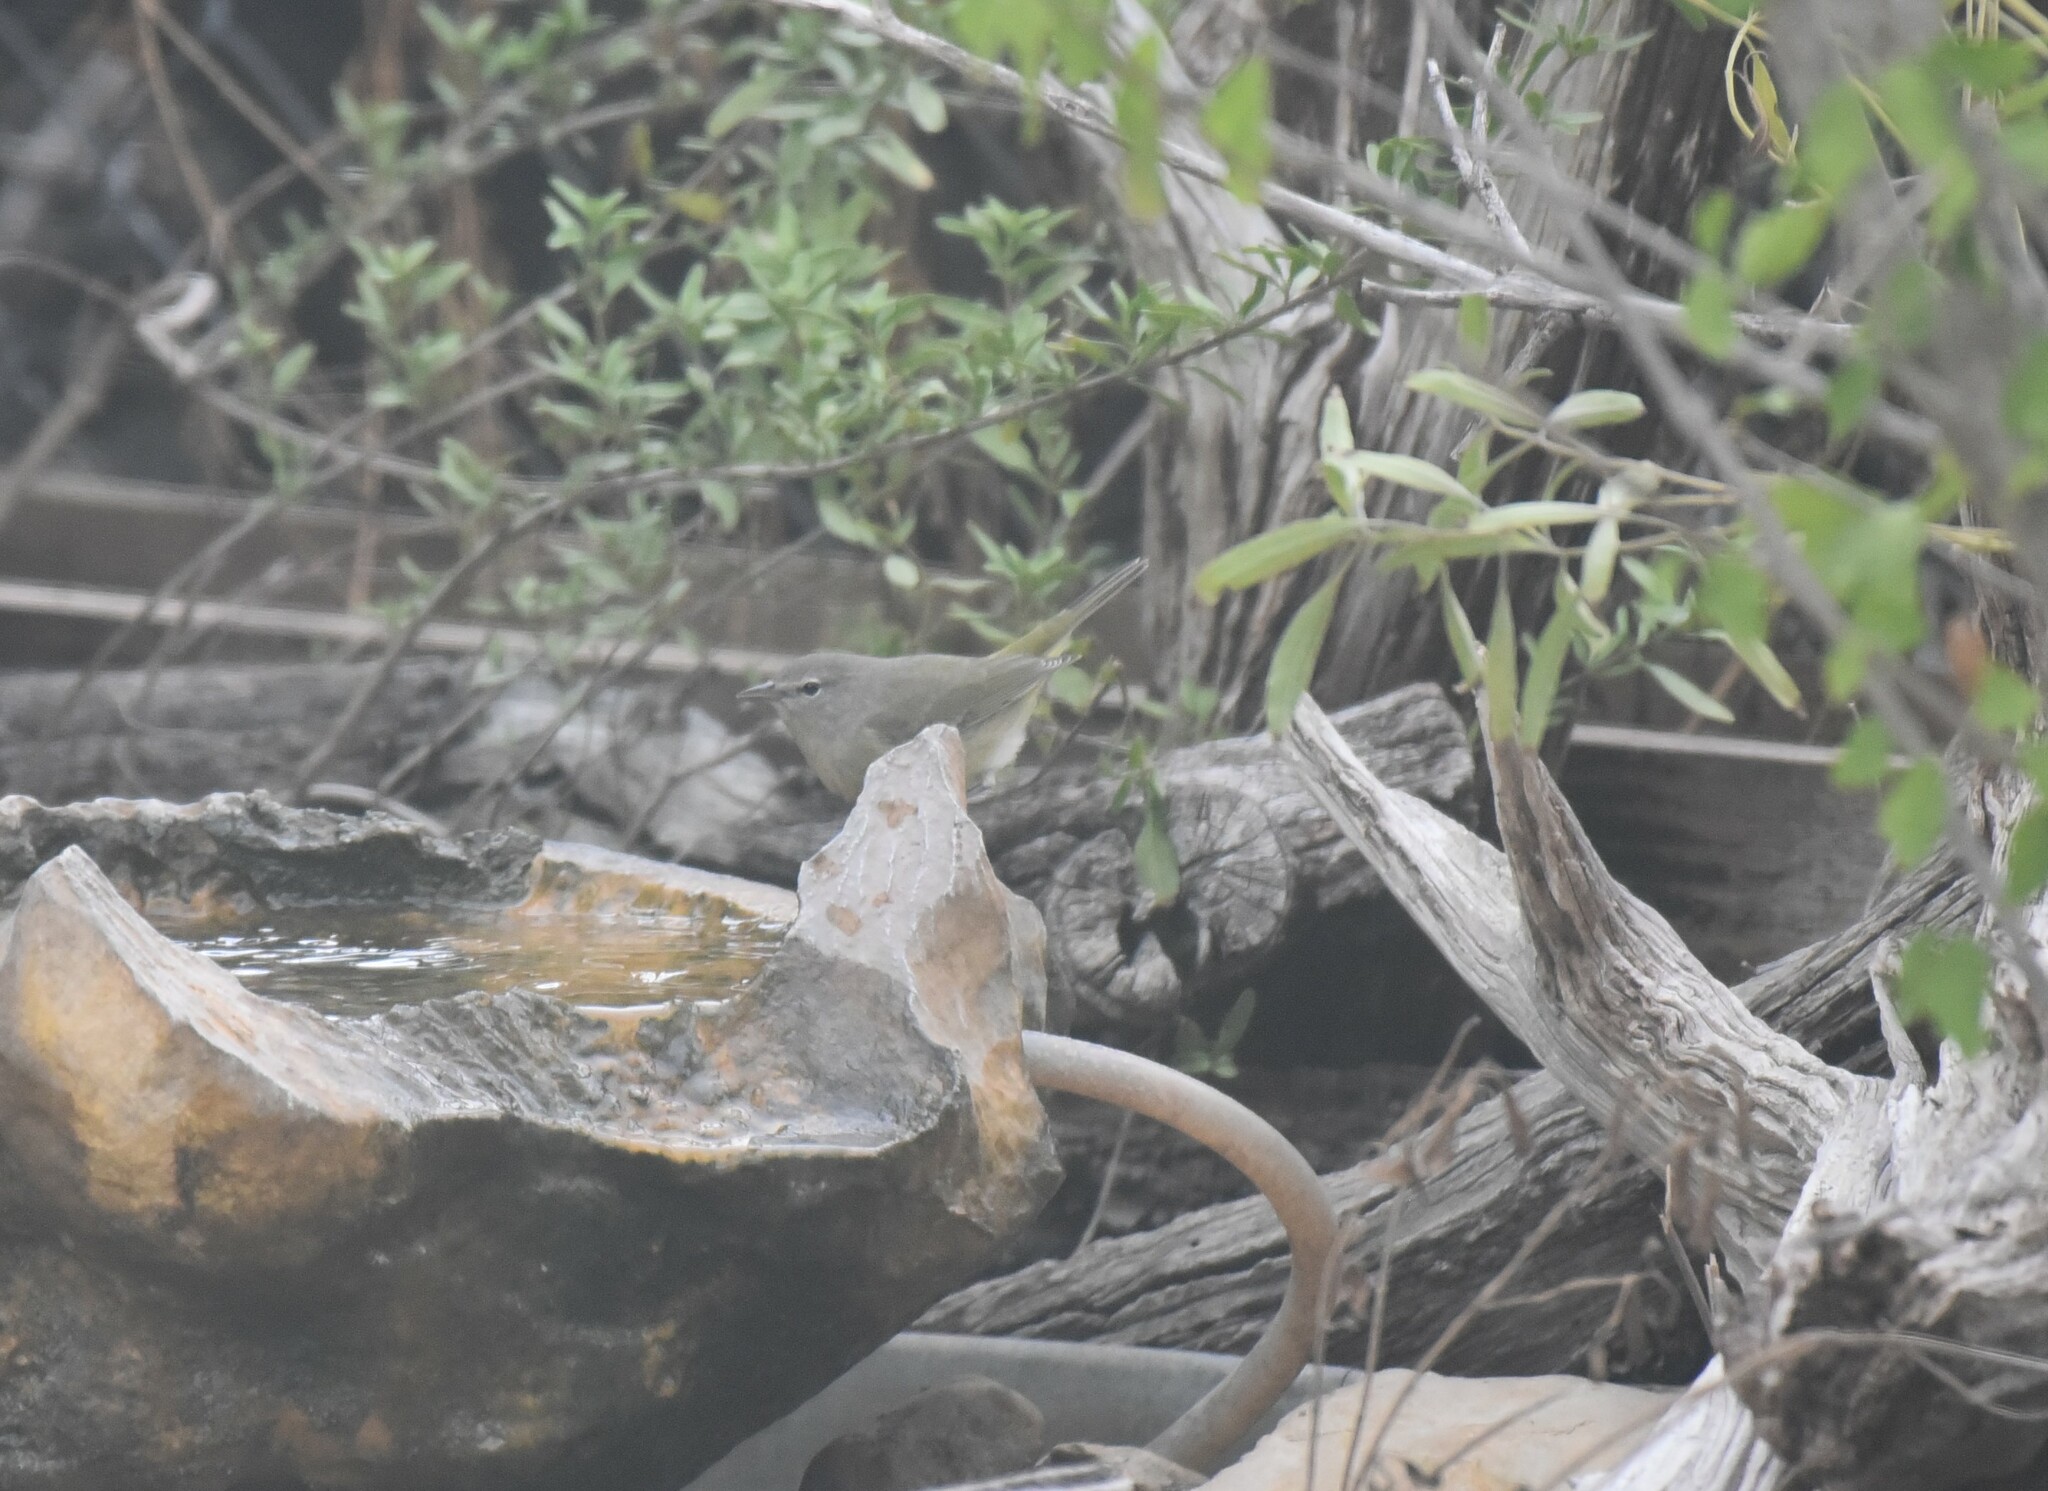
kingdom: Animalia
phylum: Chordata
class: Aves
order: Passeriformes
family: Parulidae
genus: Leiothlypis
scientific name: Leiothlypis celata
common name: Orange-crowned warbler
